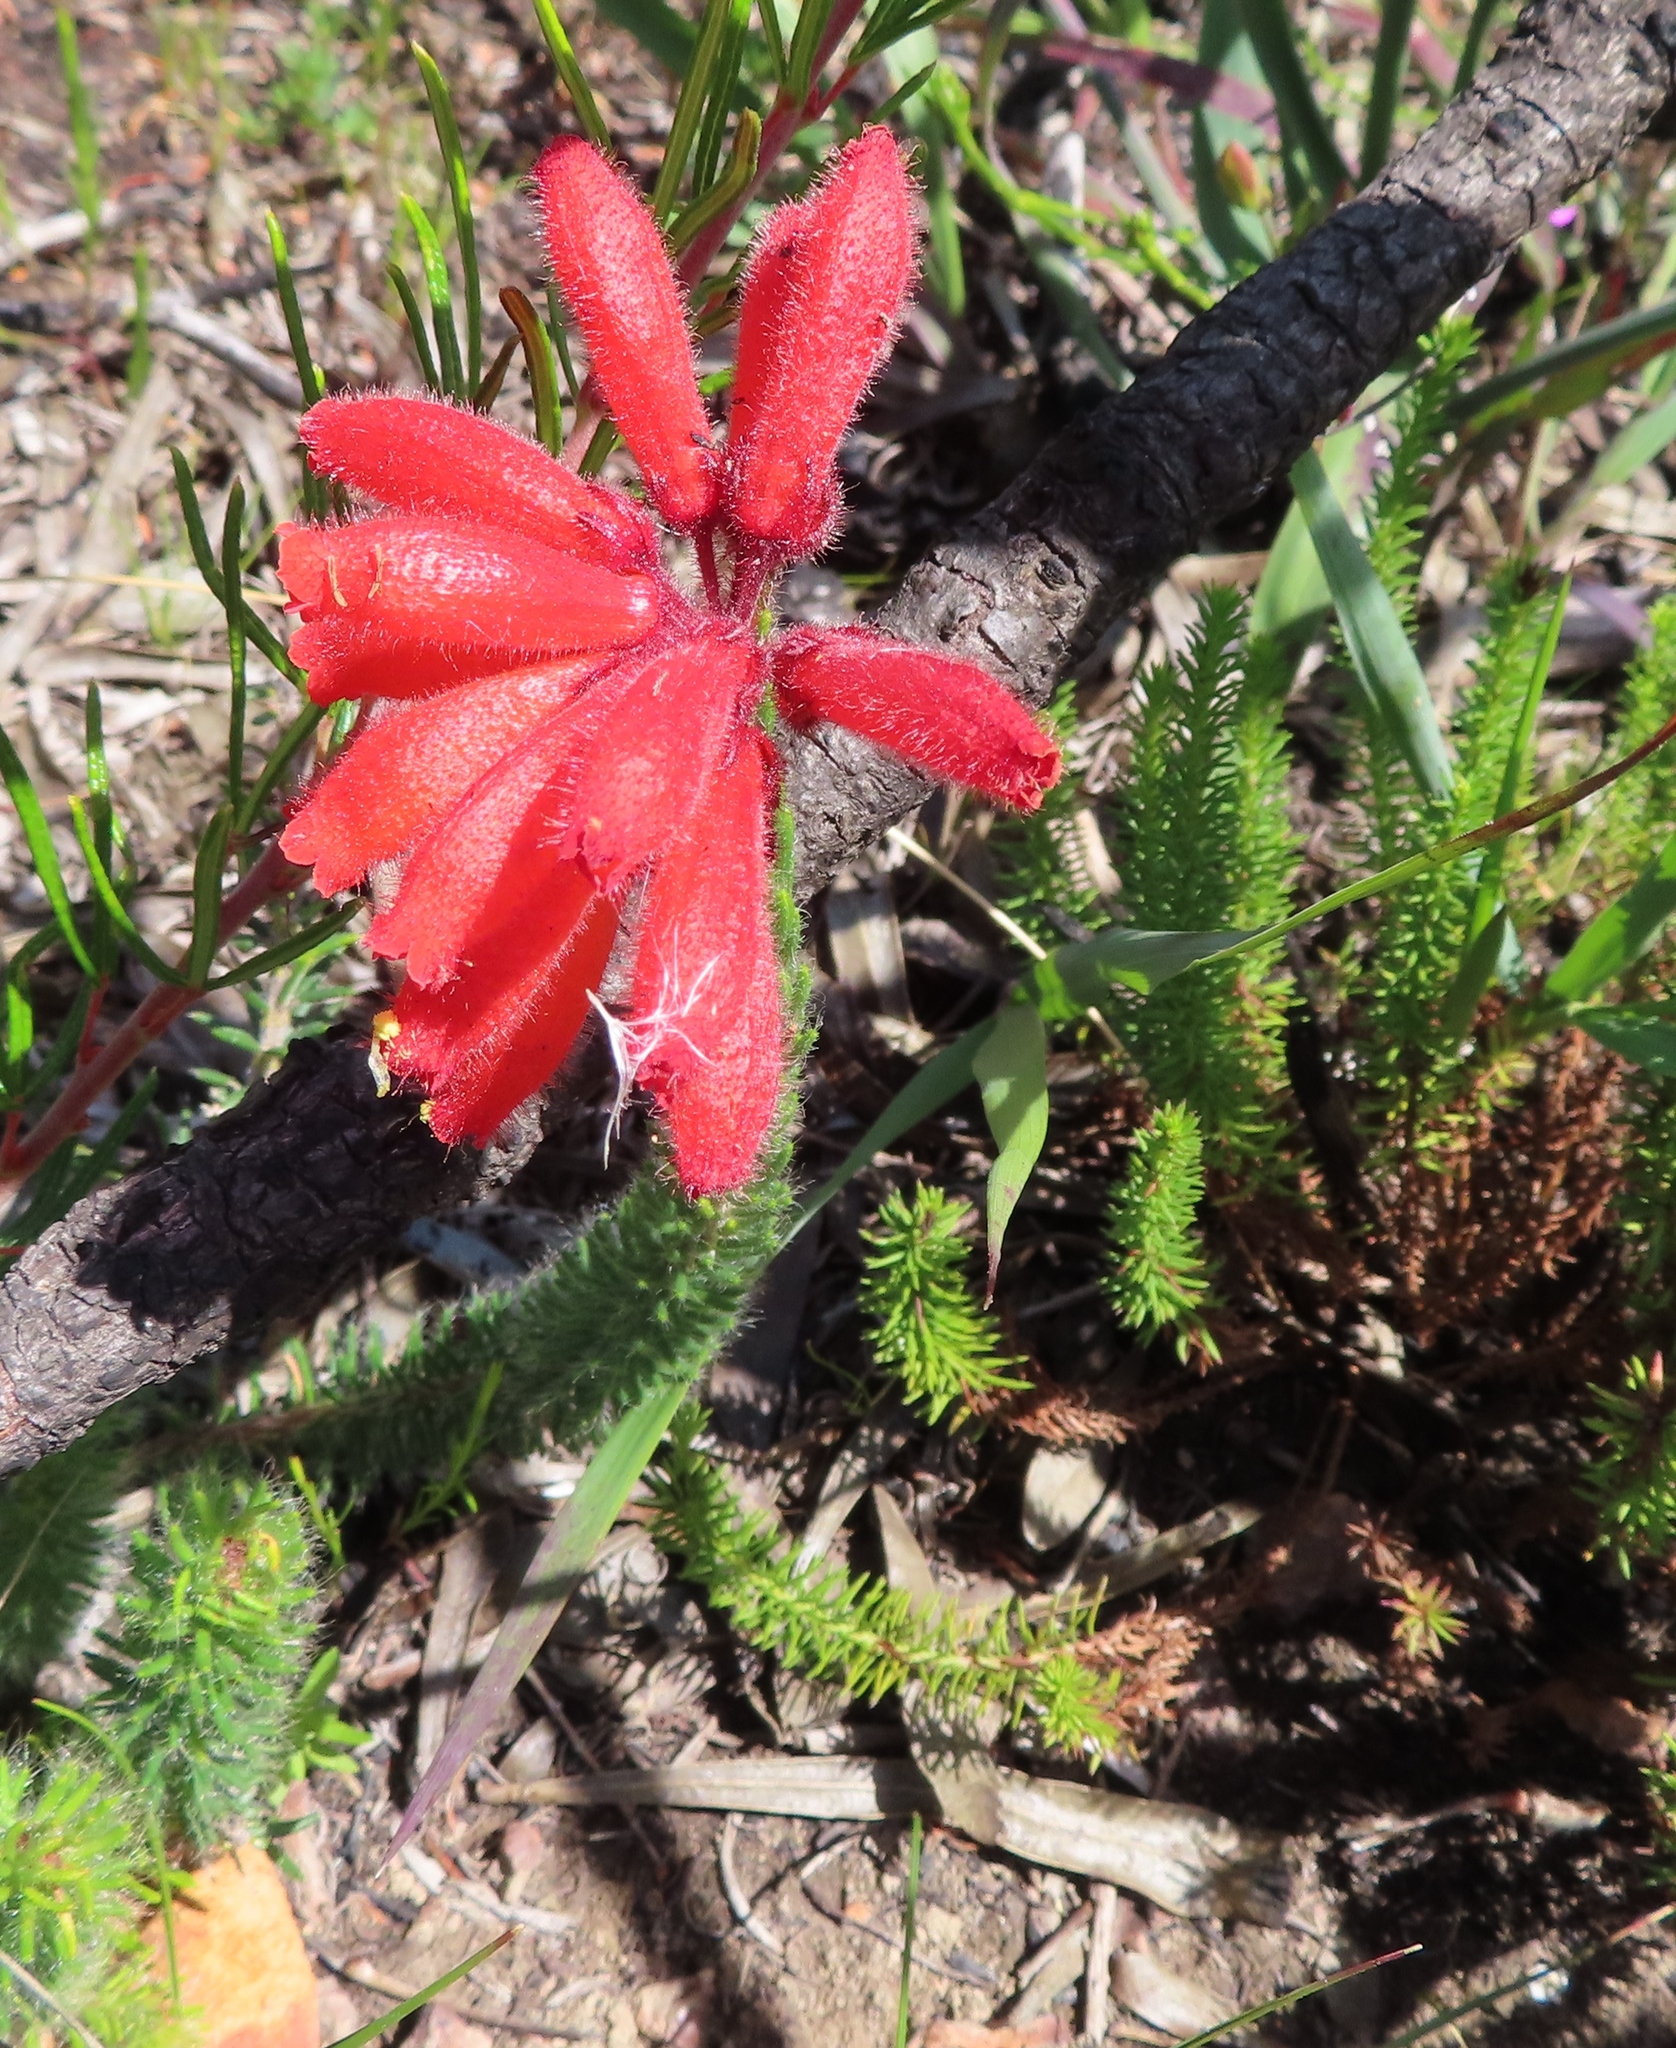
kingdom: Plantae
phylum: Tracheophyta
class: Magnoliopsida
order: Ericales
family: Ericaceae
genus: Erica
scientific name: Erica cerinthoides
